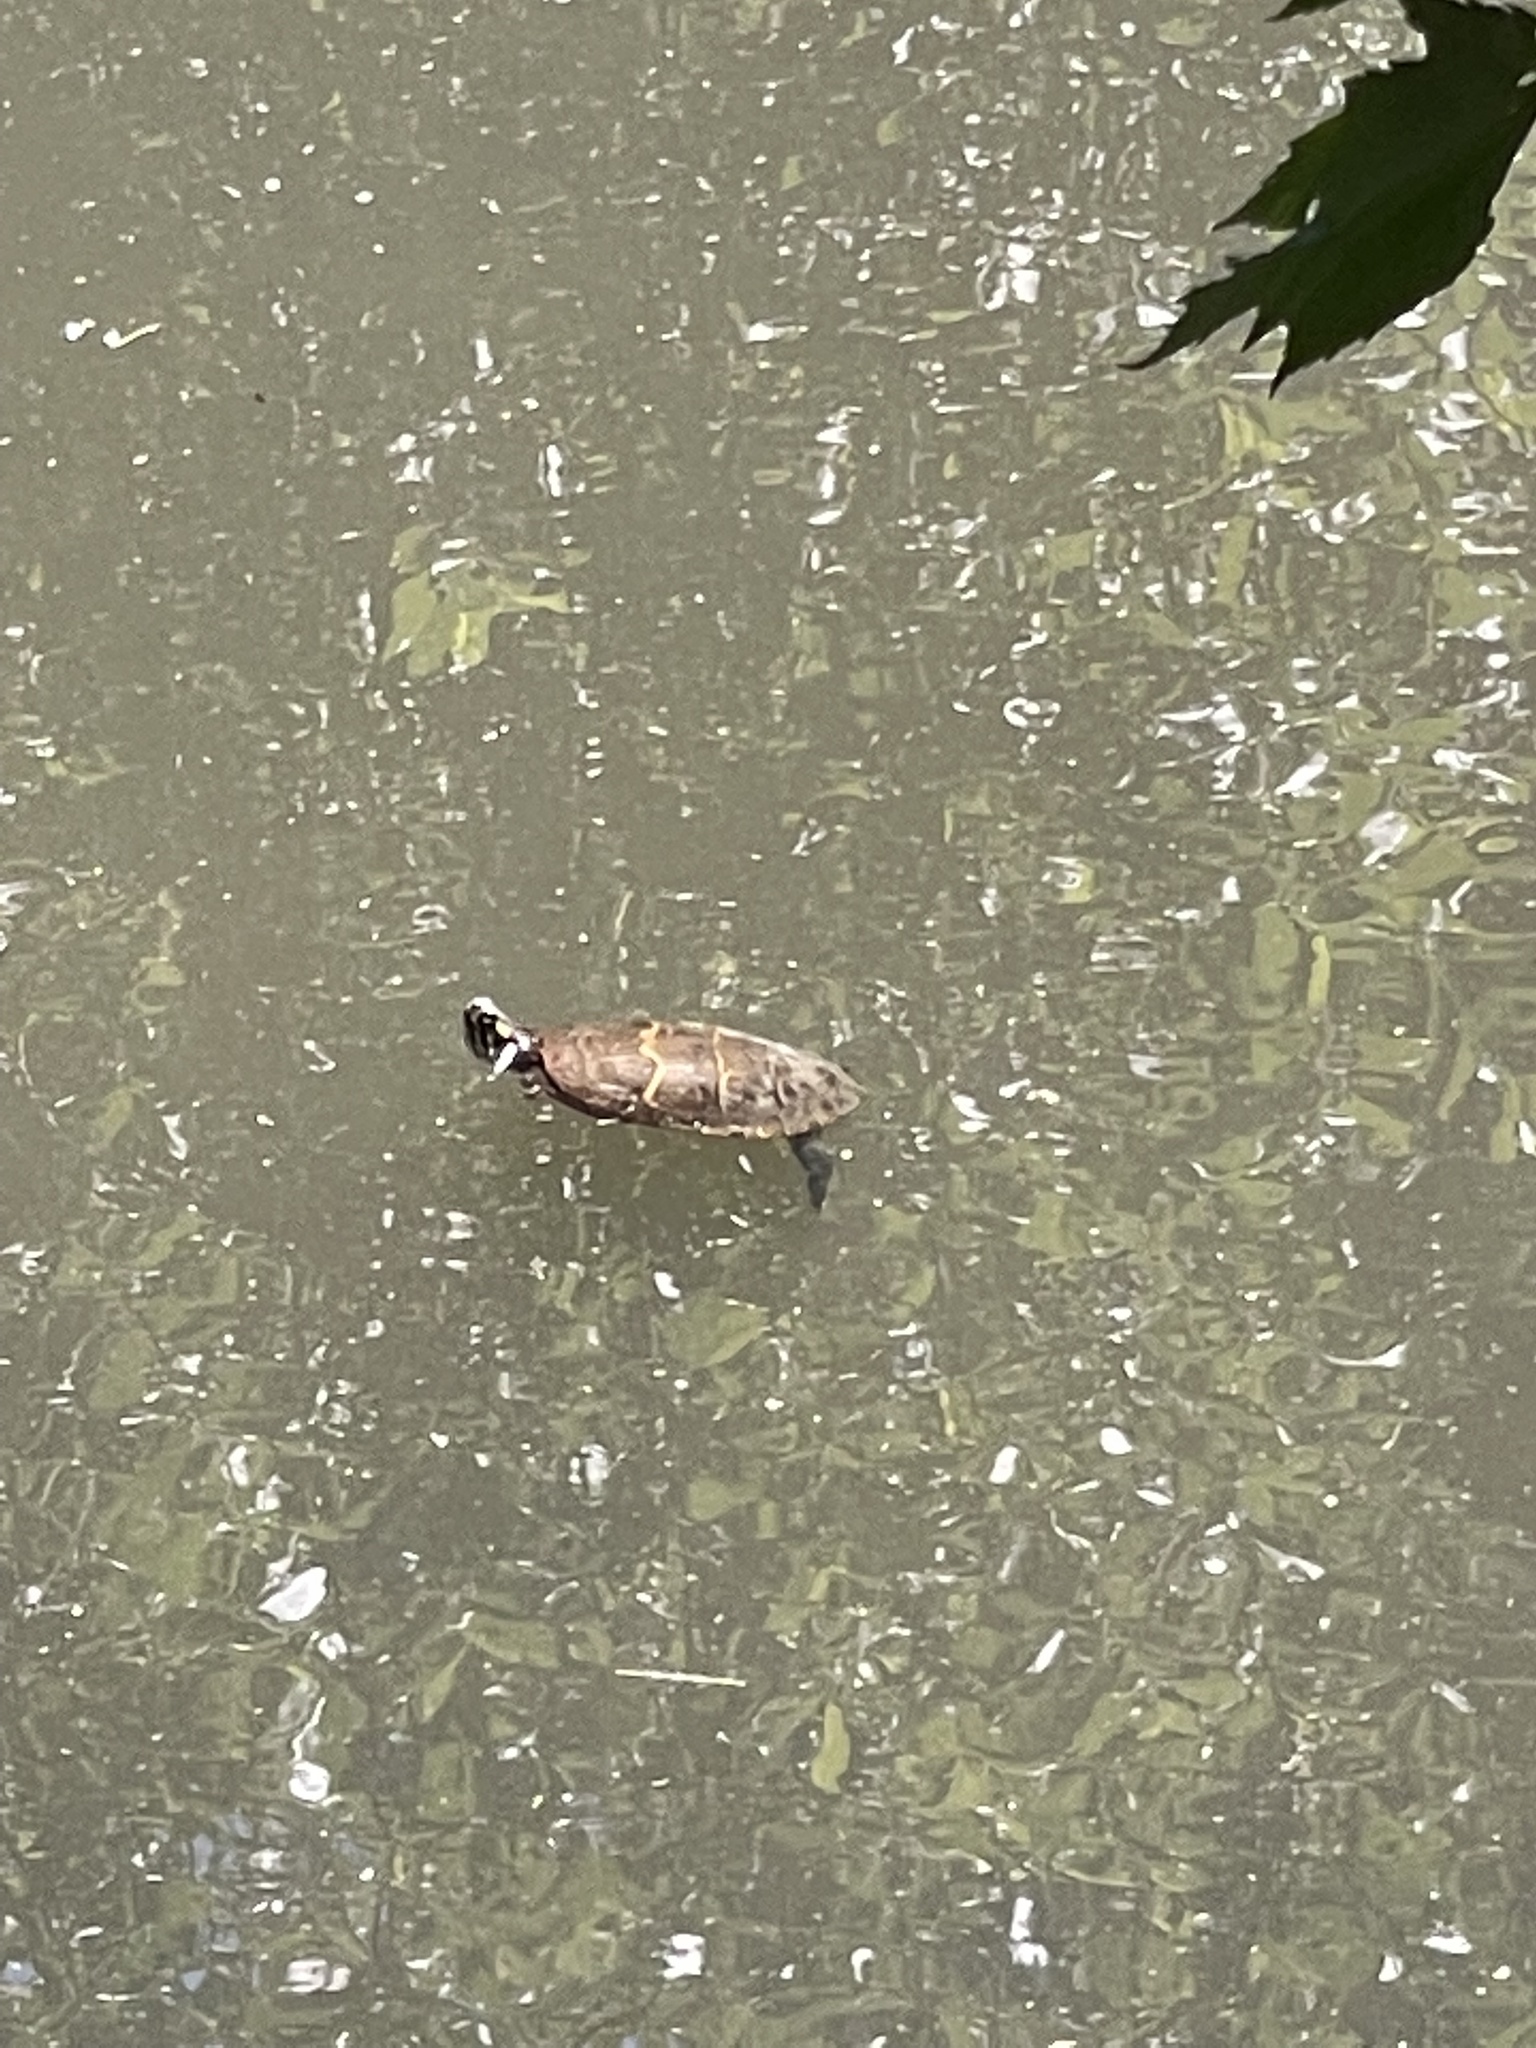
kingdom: Animalia
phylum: Chordata
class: Testudines
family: Emydidae
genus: Chrysemys
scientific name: Chrysemys picta
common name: Painted turtle
